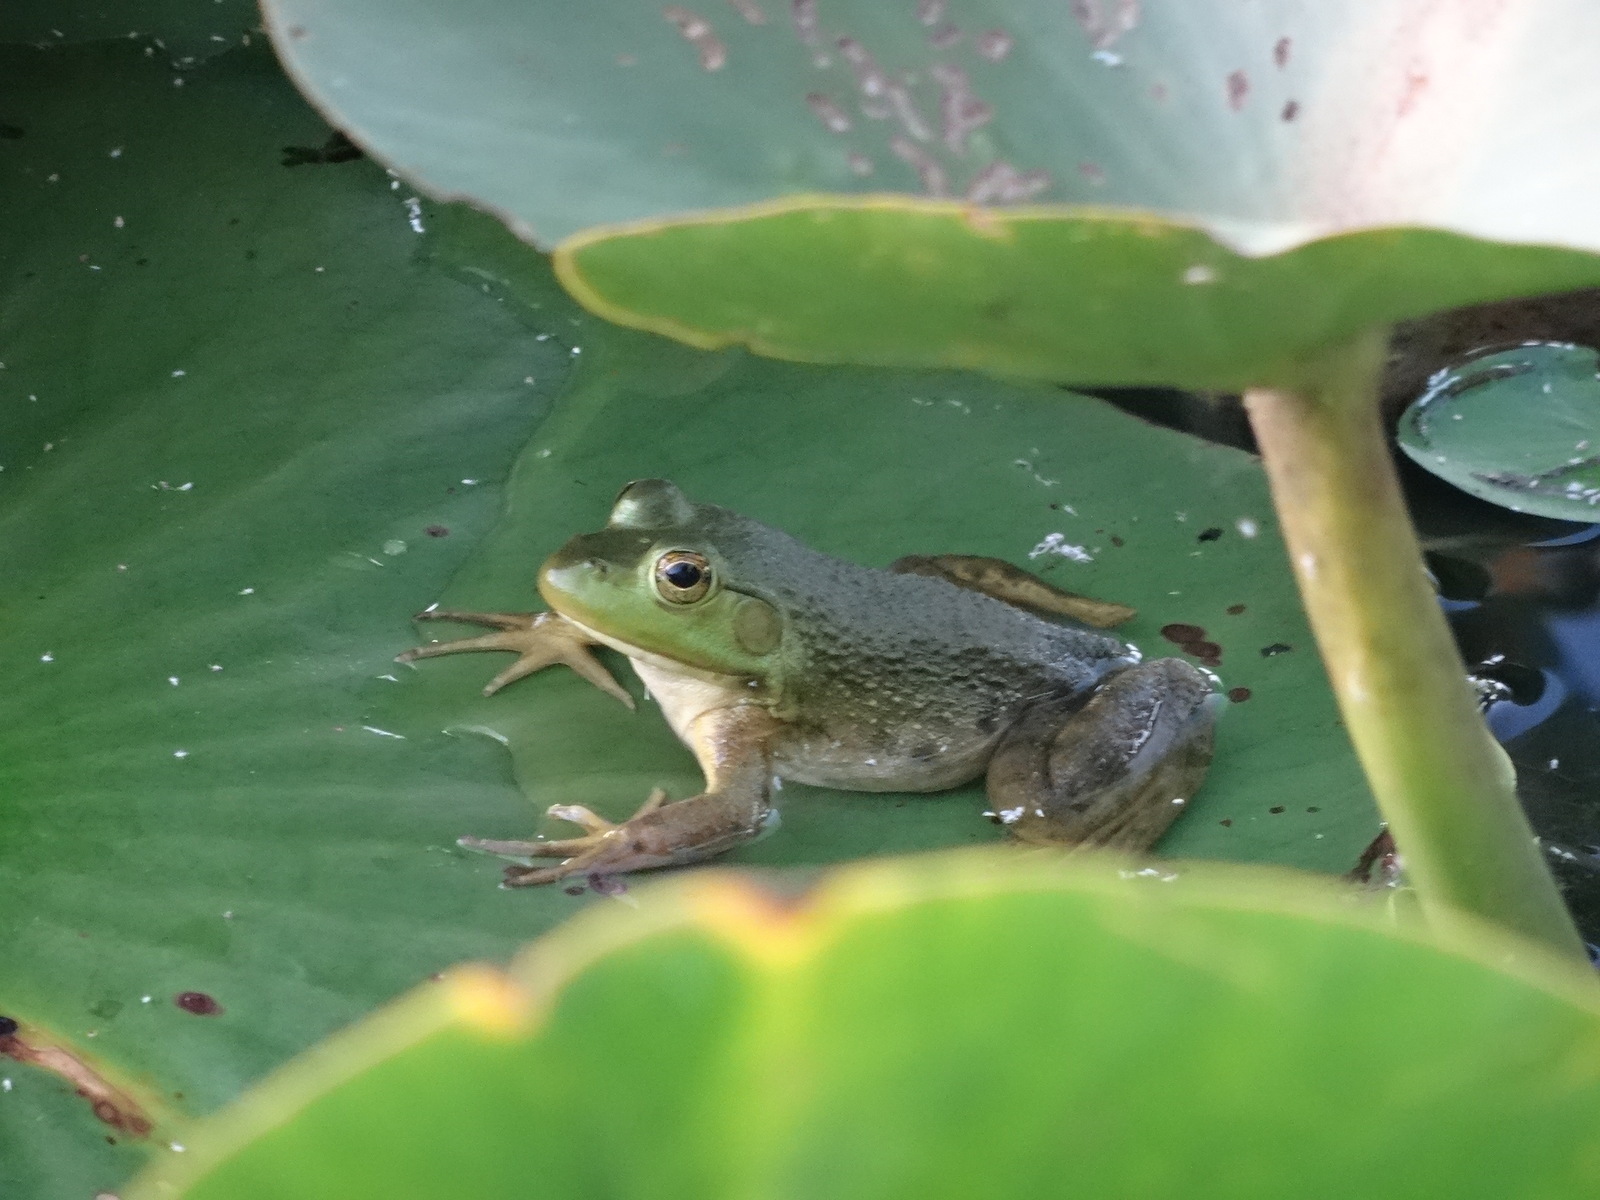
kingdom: Animalia
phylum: Chordata
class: Amphibia
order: Anura
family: Ranidae
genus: Lithobates
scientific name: Lithobates catesbeianus
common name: American bullfrog
